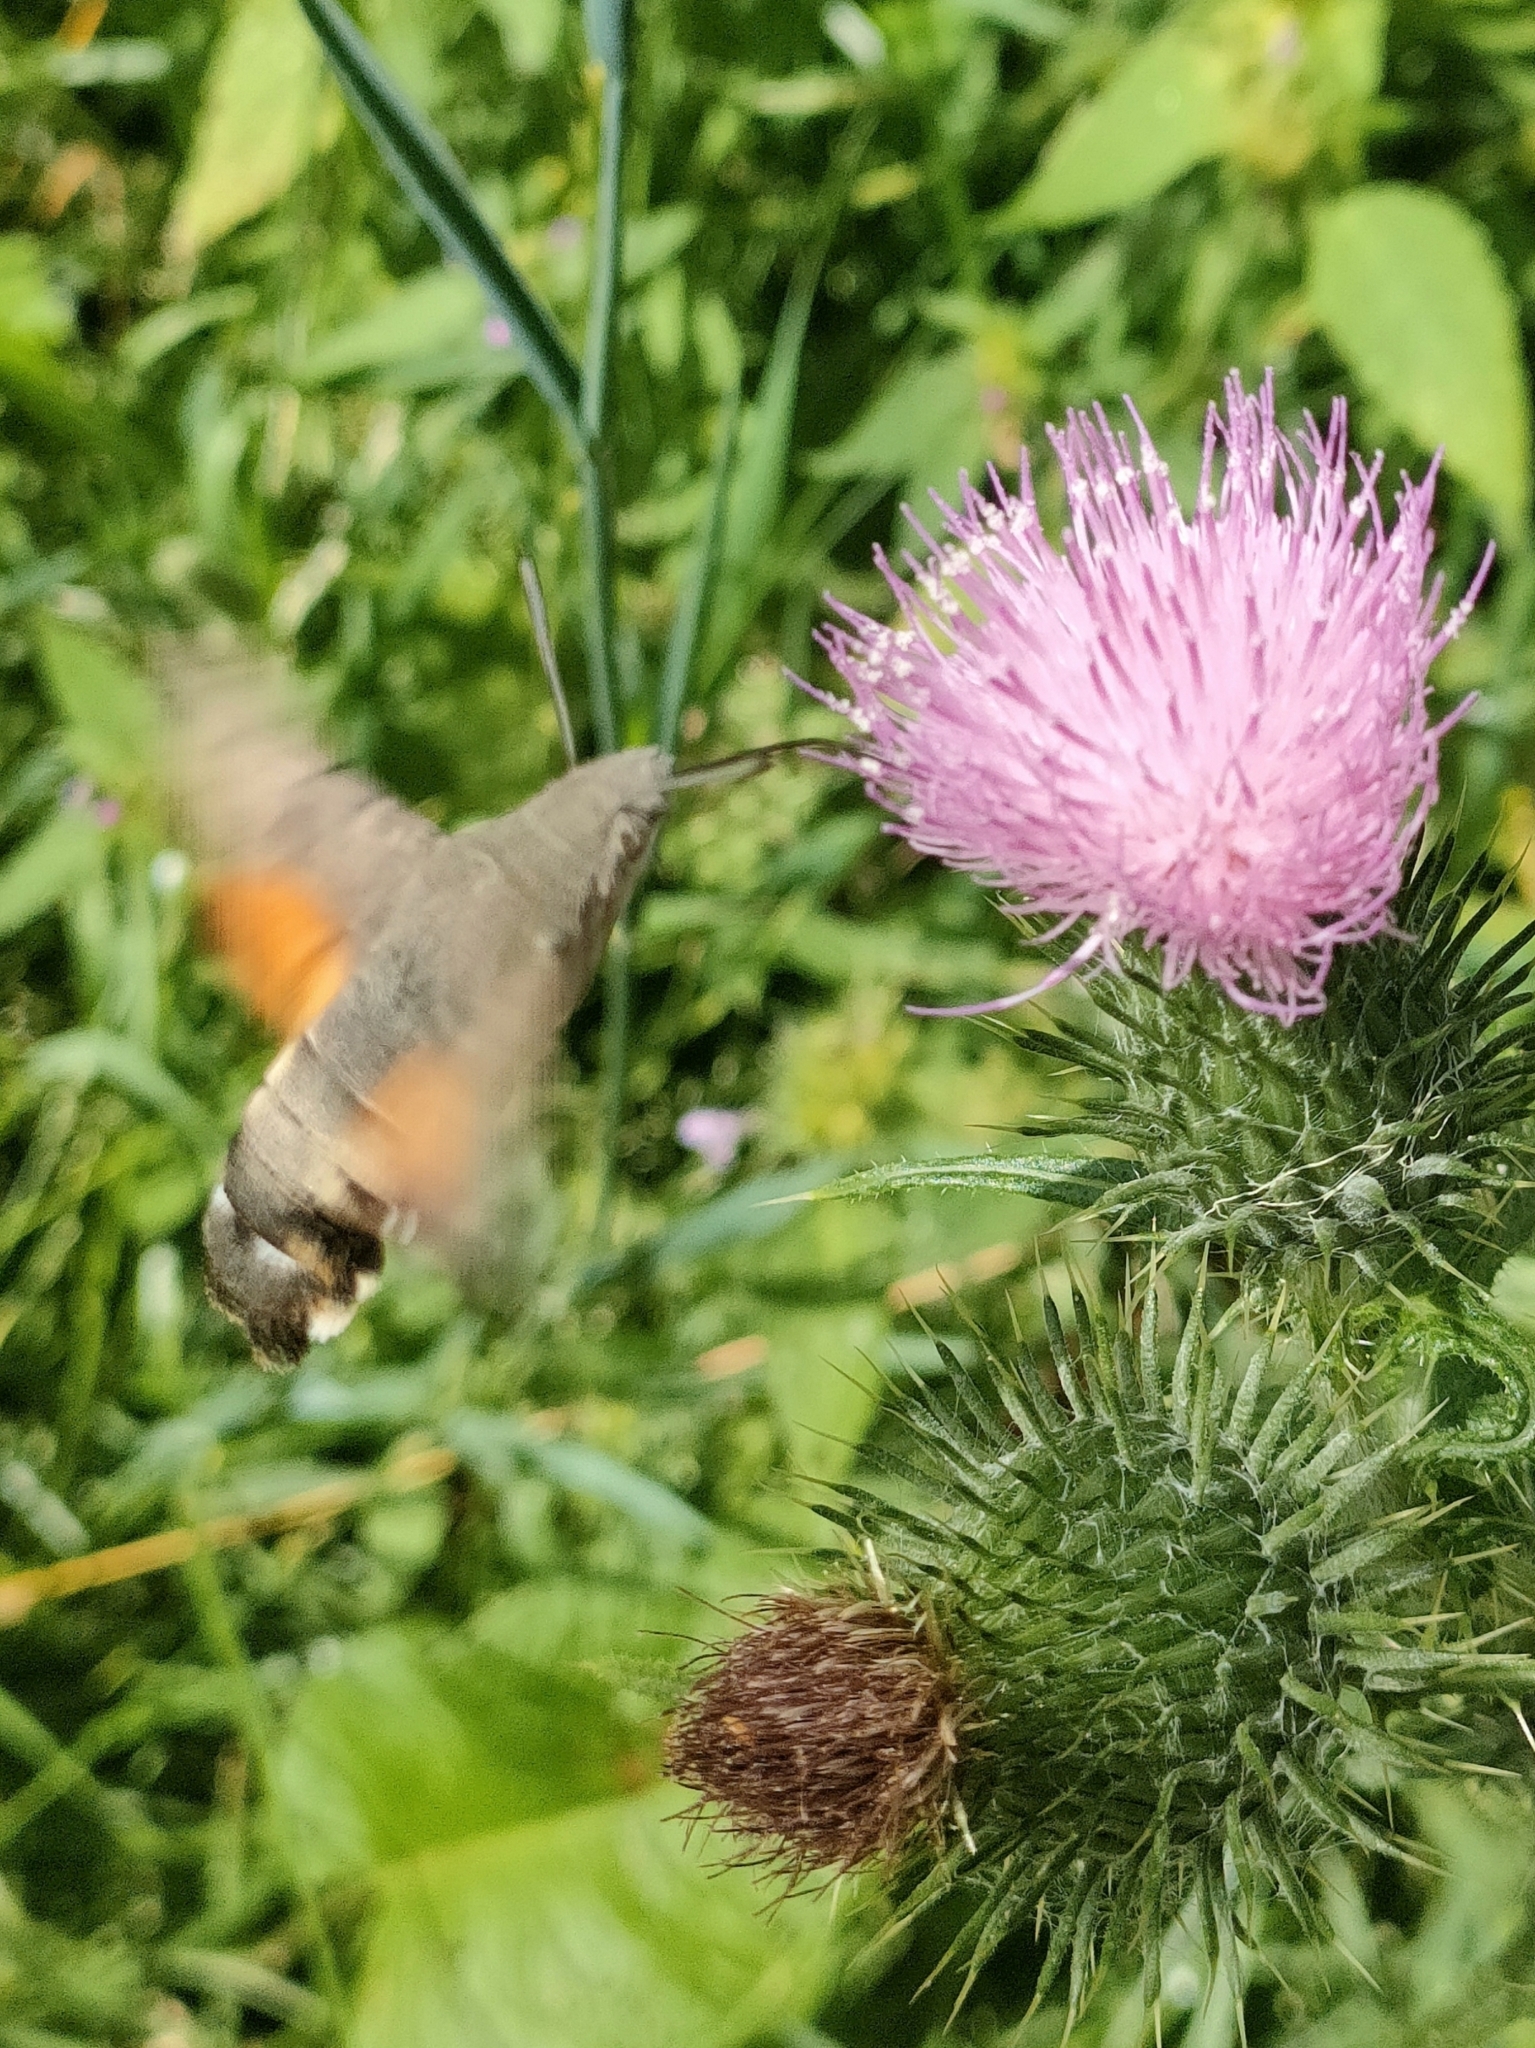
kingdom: Animalia
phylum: Arthropoda
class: Insecta
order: Lepidoptera
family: Sphingidae
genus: Macroglossum
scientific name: Macroglossum stellatarum
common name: Humming-bird hawk-moth
